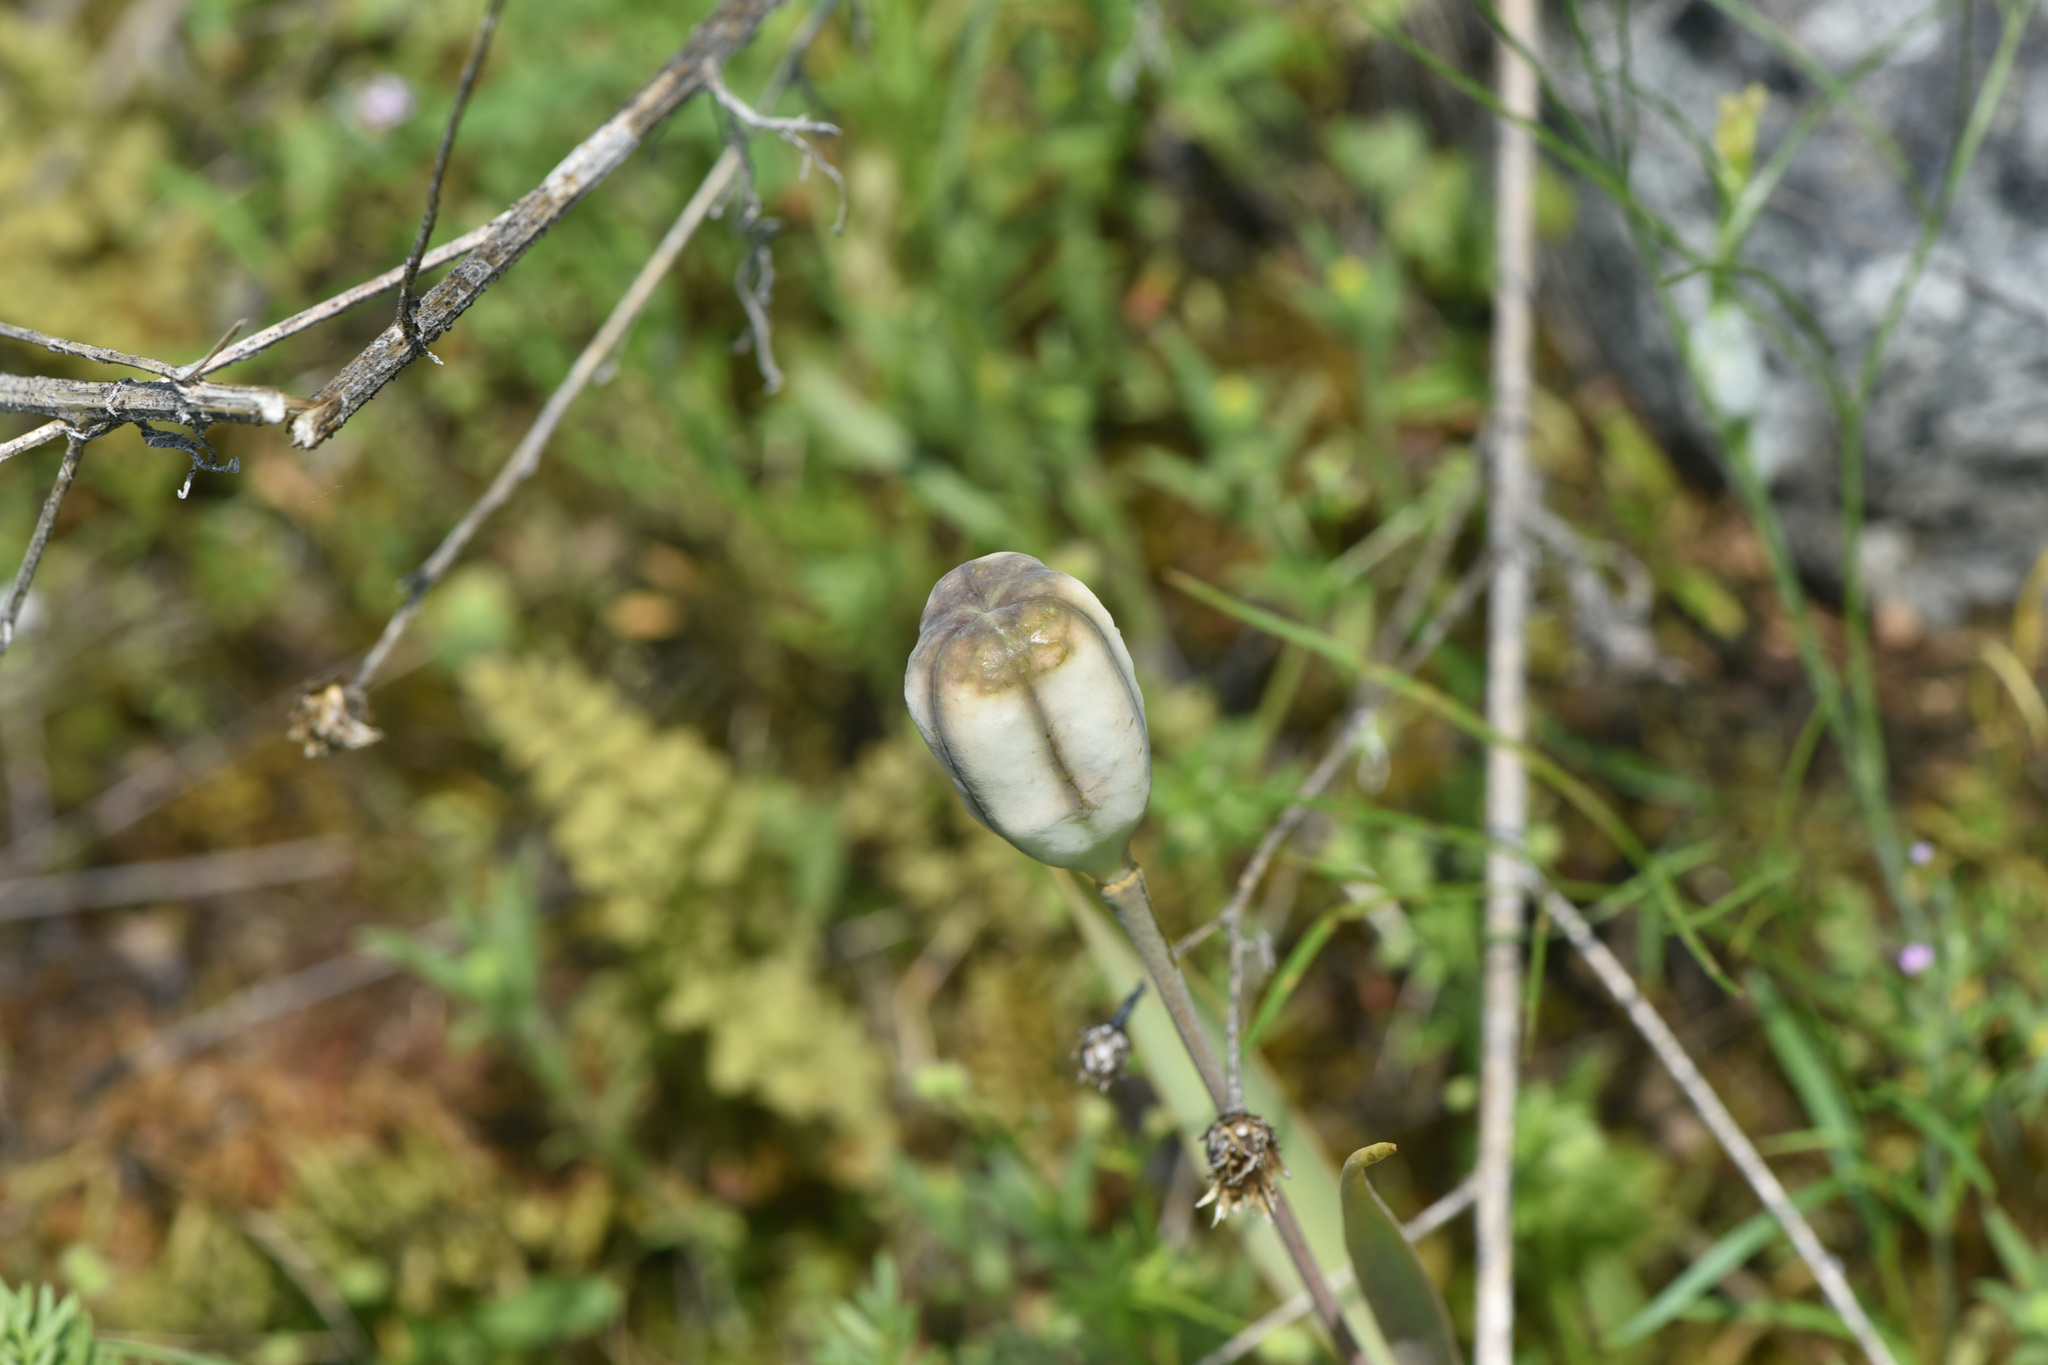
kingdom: Plantae
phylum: Tracheophyta
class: Liliopsida
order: Liliales
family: Liliaceae
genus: Fritillaria
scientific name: Fritillaria pudica
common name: Yellow fritillary
